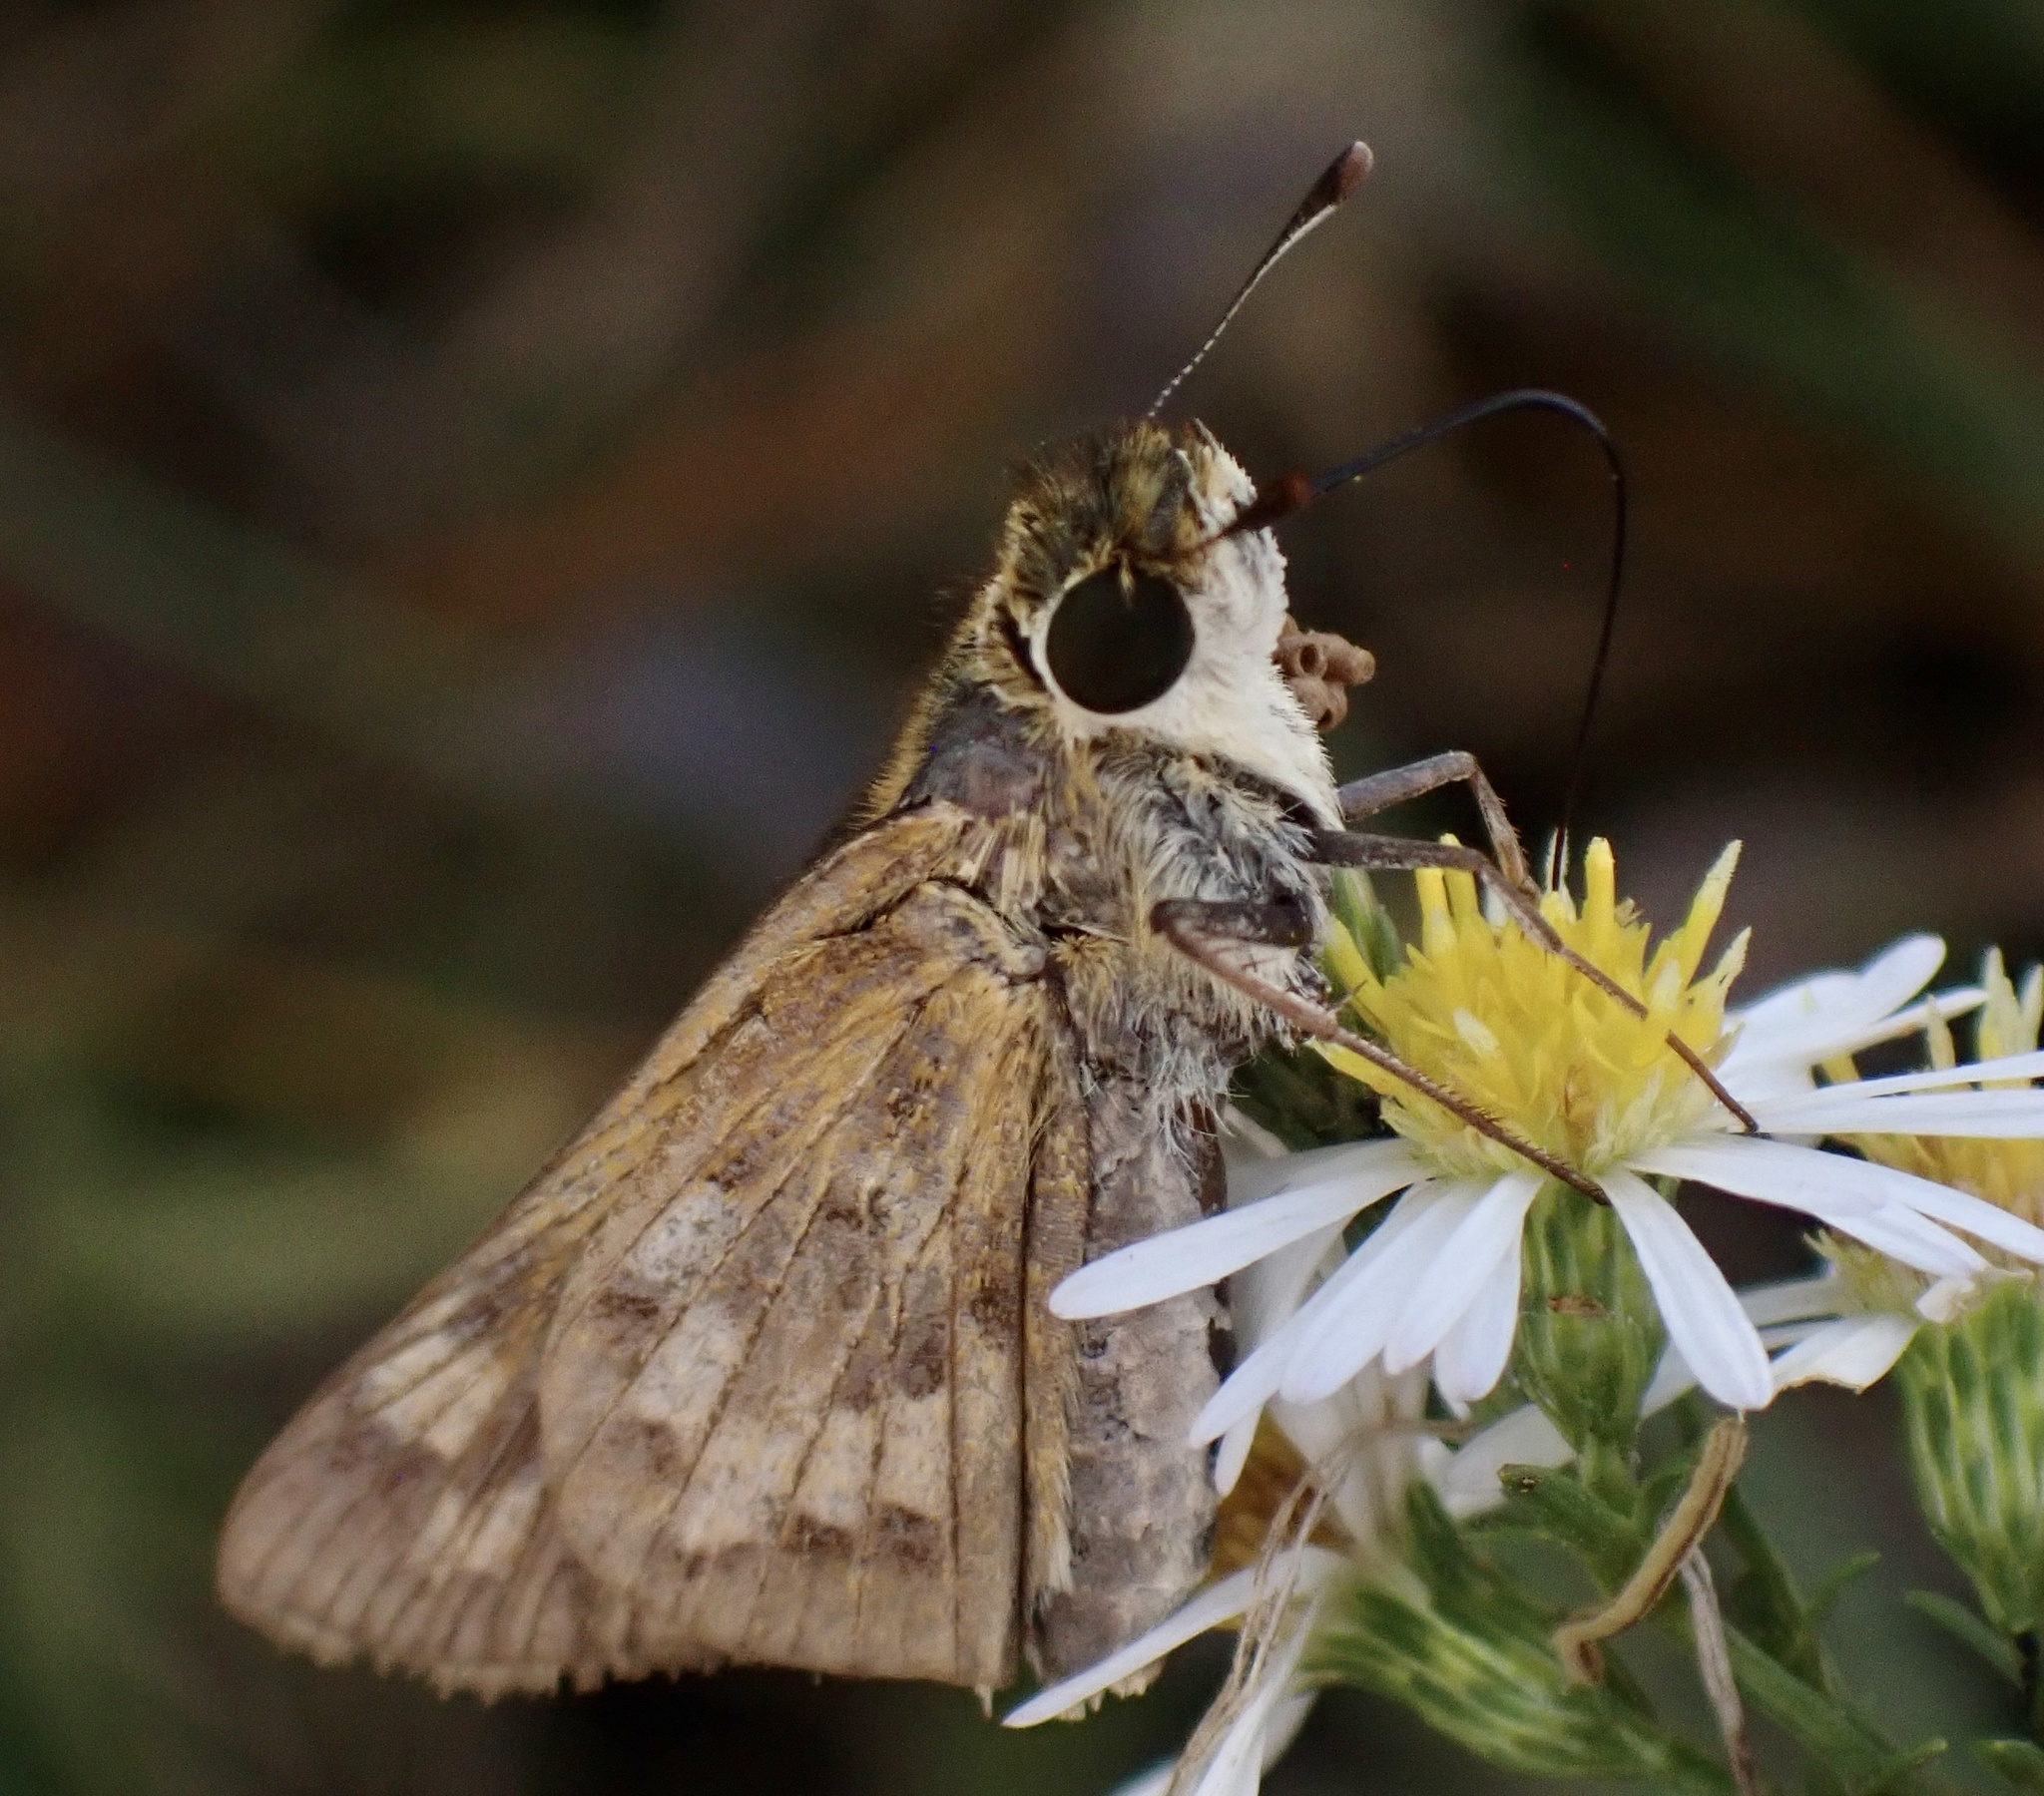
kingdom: Animalia
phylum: Arthropoda
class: Insecta
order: Lepidoptera
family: Hesperiidae
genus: Hylephila
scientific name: Hylephila phyleus
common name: Fiery skipper
